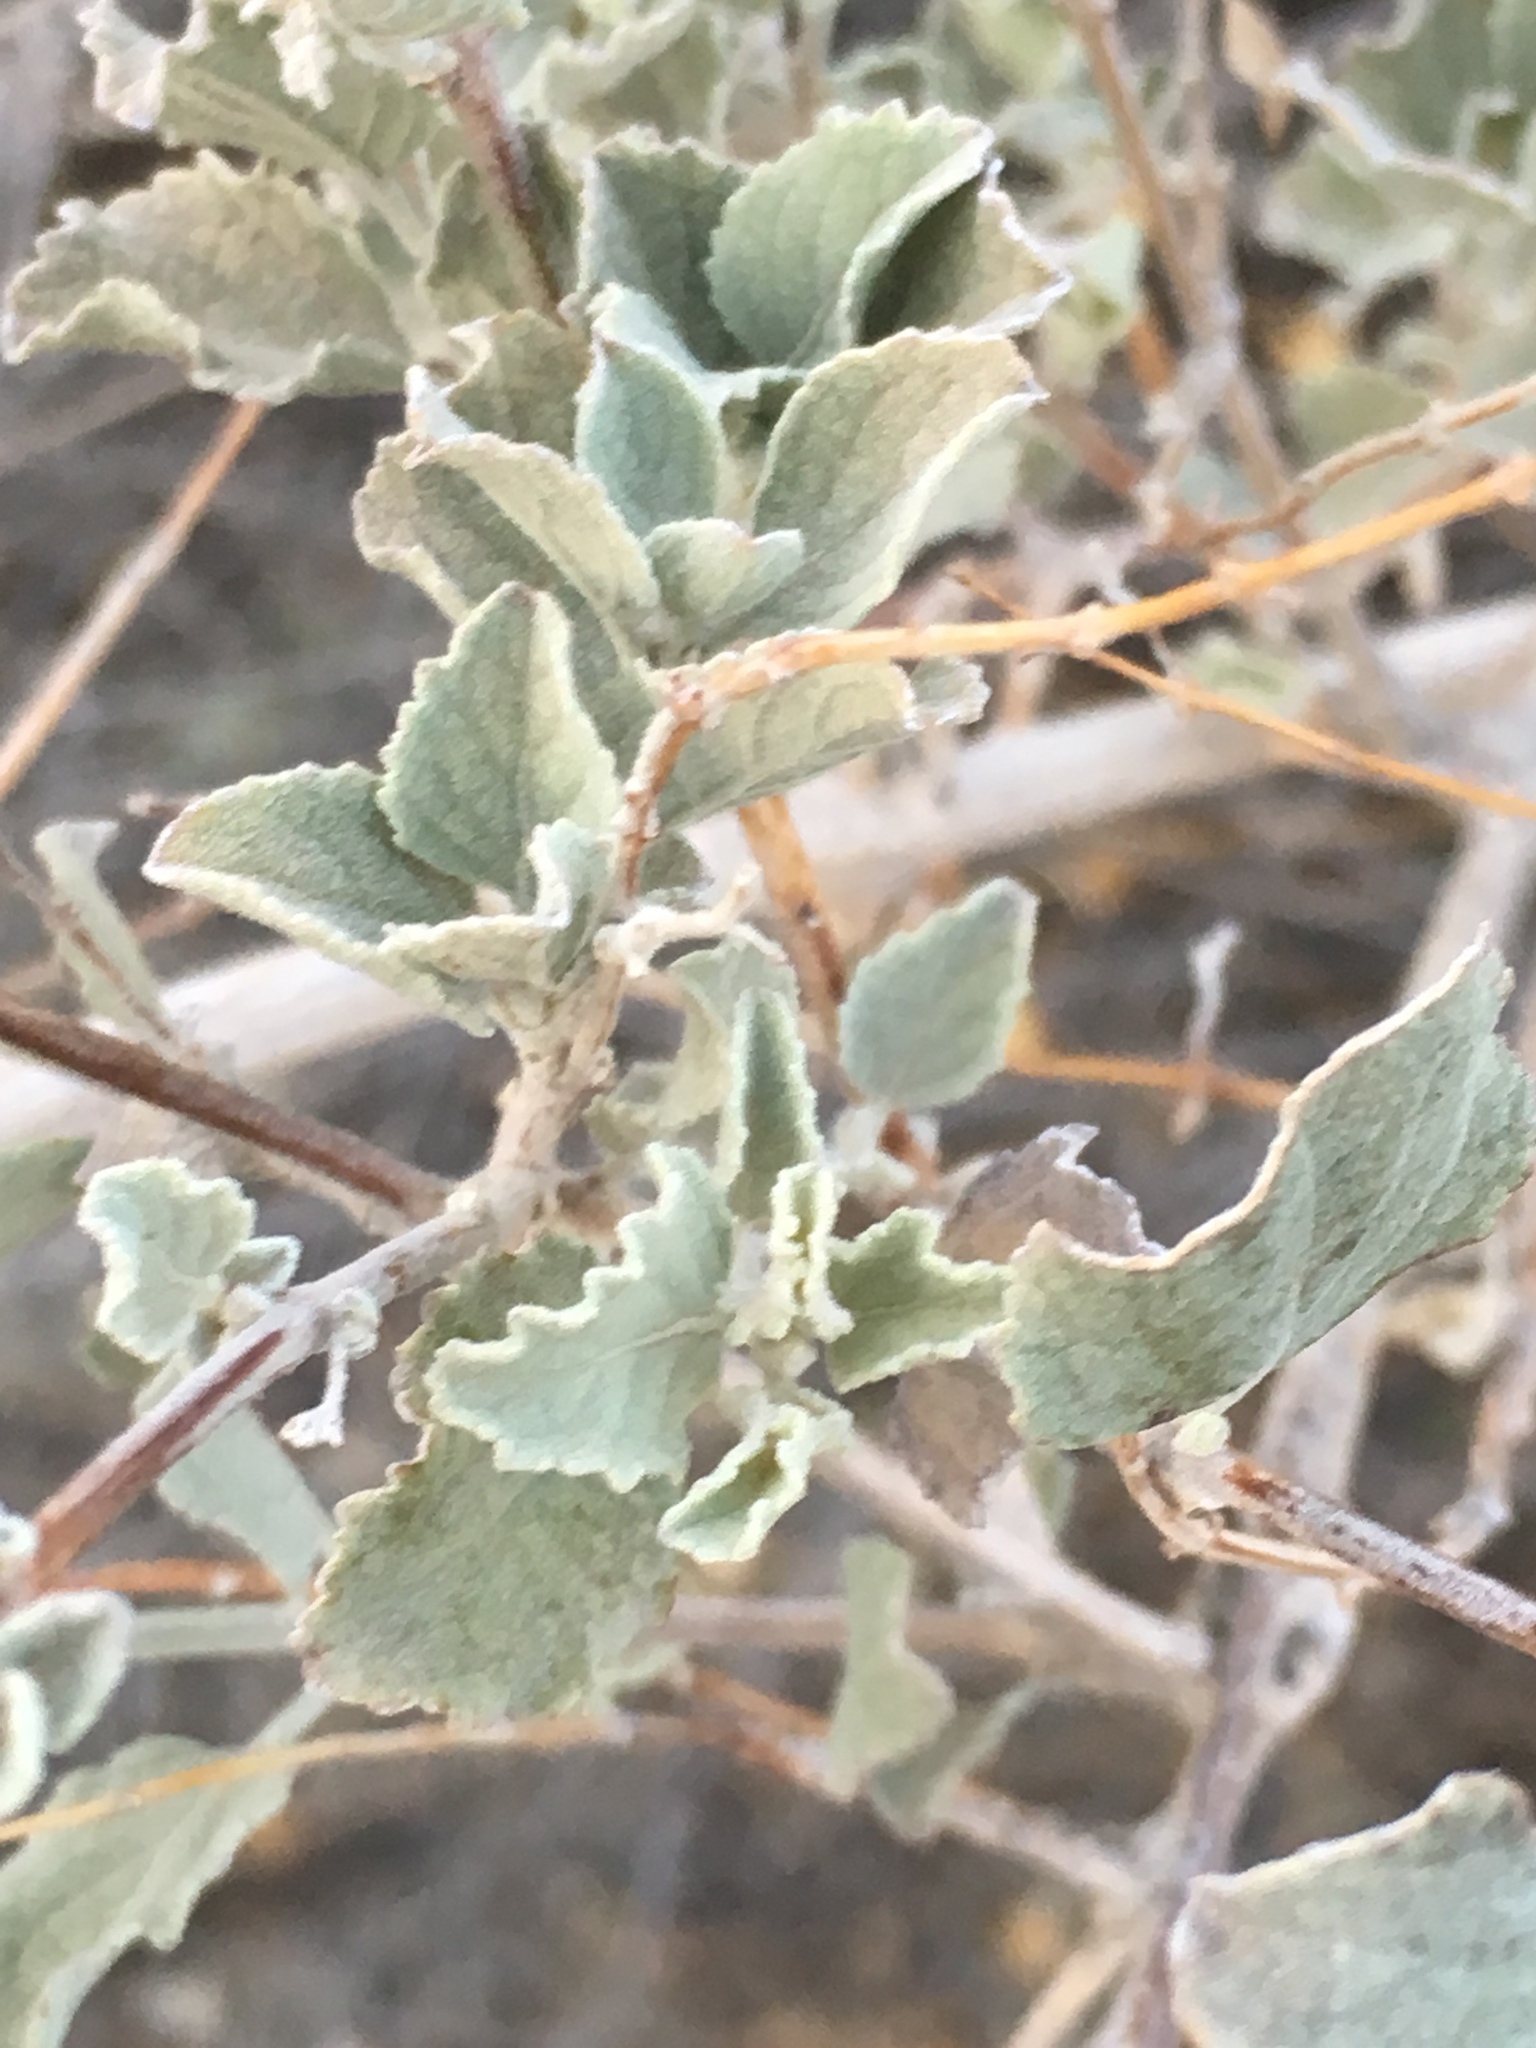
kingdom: Plantae
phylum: Tracheophyta
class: Magnoliopsida
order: Lamiales
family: Lamiaceae
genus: Condea
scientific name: Condea emoryi
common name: Chia
